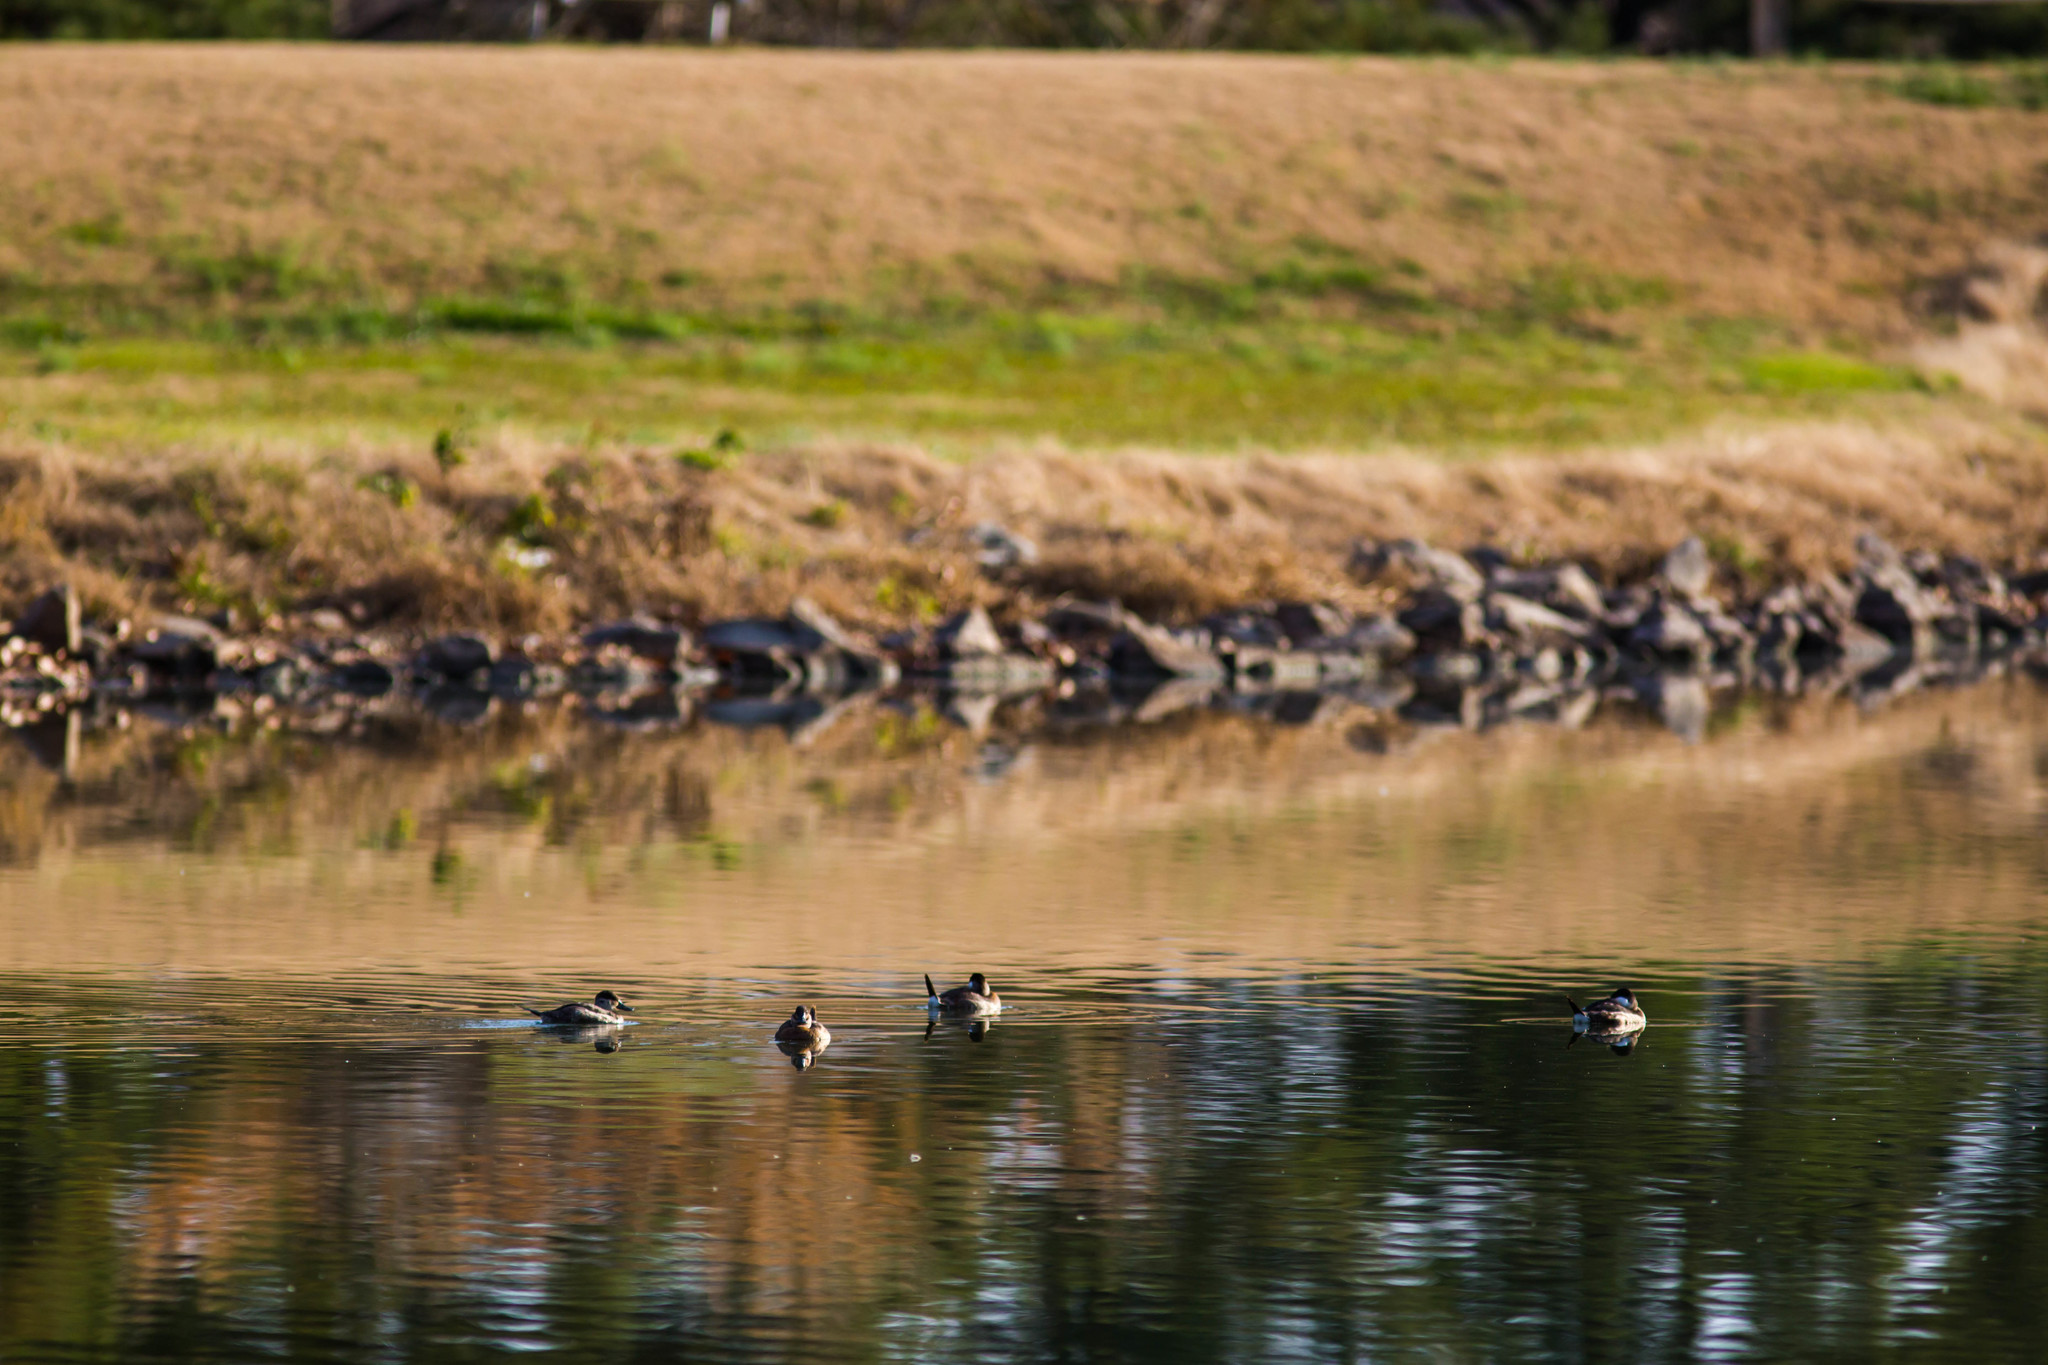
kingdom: Animalia
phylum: Chordata
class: Aves
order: Anseriformes
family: Anatidae
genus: Oxyura
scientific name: Oxyura jamaicensis
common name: Ruddy duck
